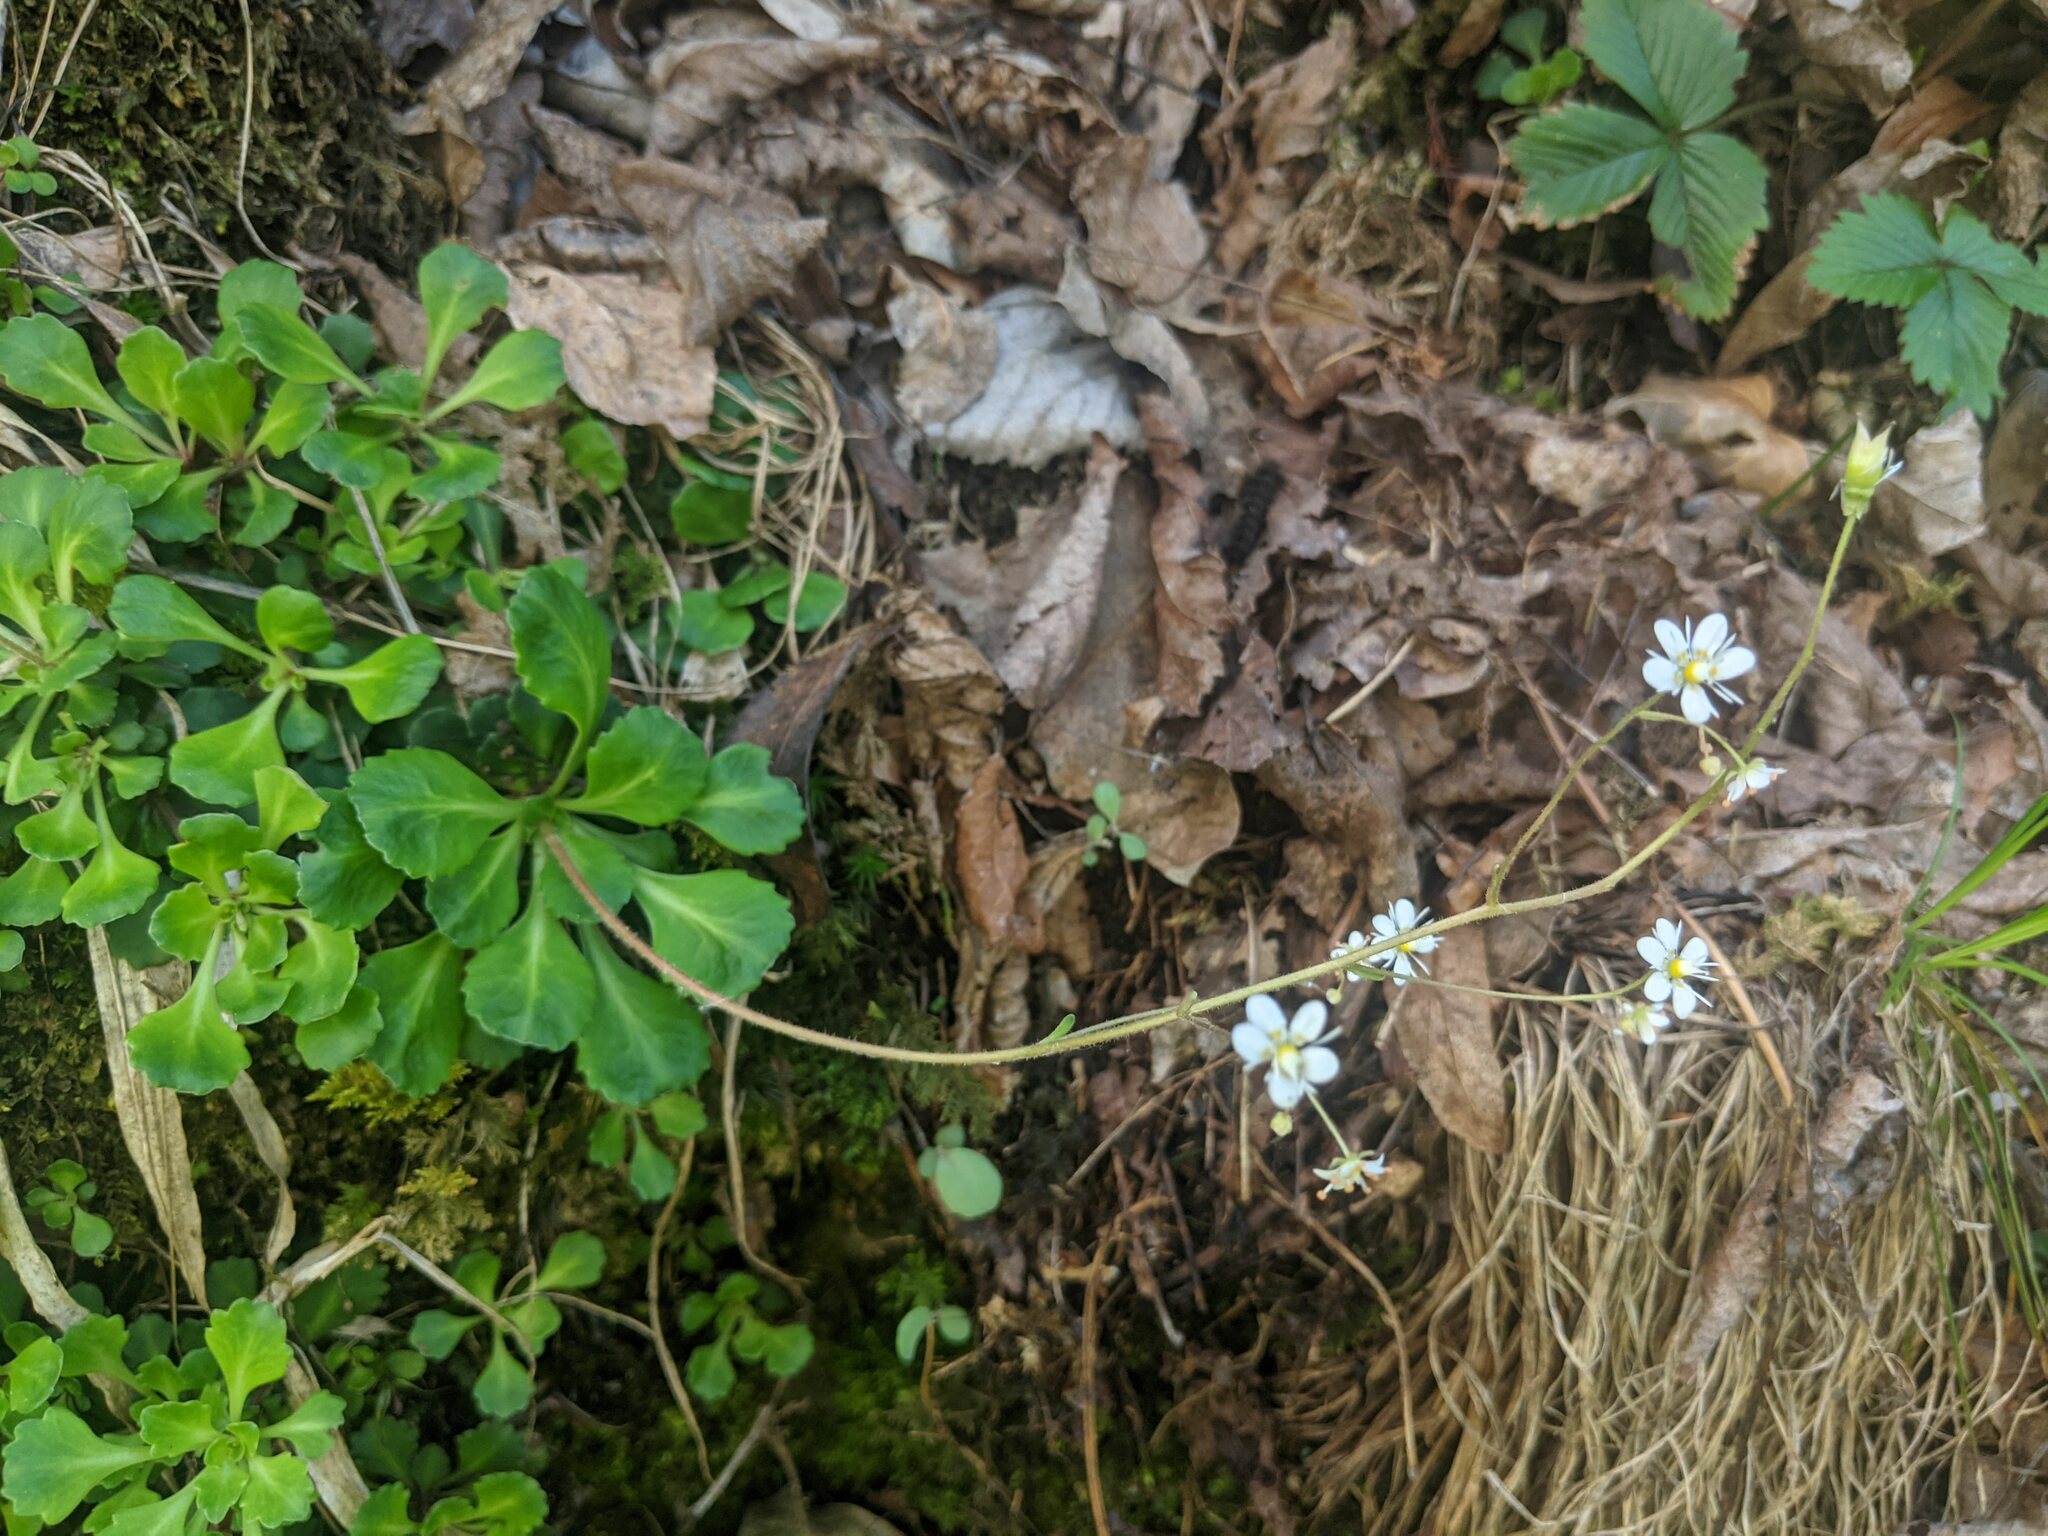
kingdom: Plantae
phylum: Tracheophyta
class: Magnoliopsida
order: Saxifragales
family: Saxifragaceae
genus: Saxifraga
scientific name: Saxifraga cuneifolia
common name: Lesser londonpride
